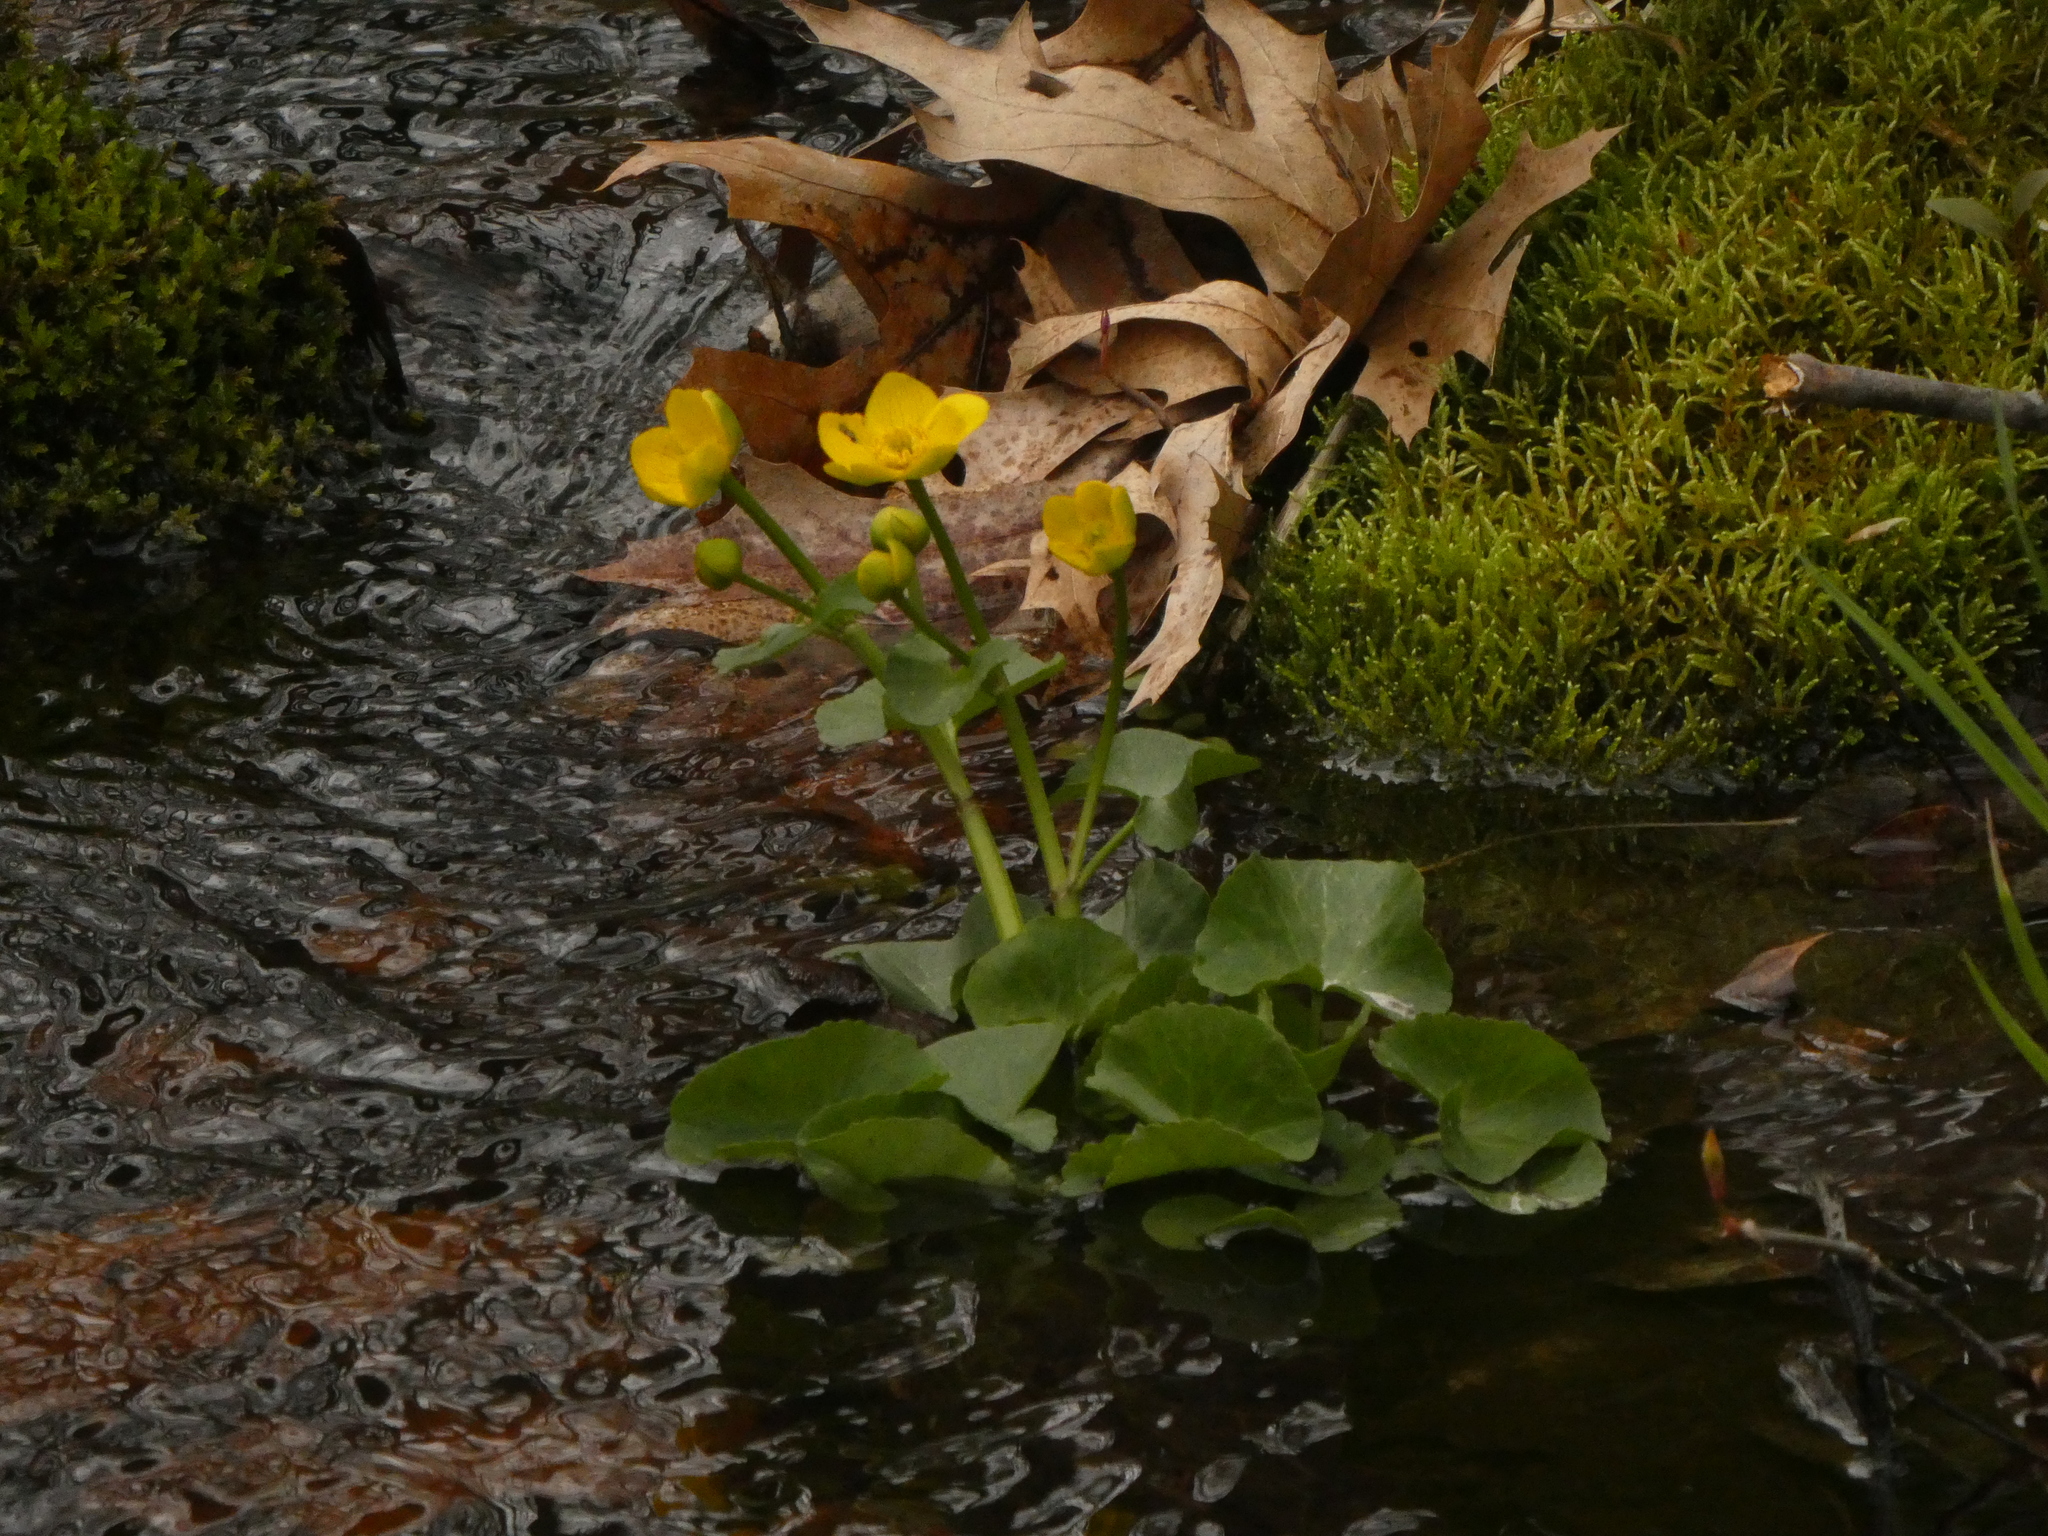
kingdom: Plantae
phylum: Tracheophyta
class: Magnoliopsida
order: Ranunculales
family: Ranunculaceae
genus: Caltha
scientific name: Caltha palustris
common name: Marsh marigold
